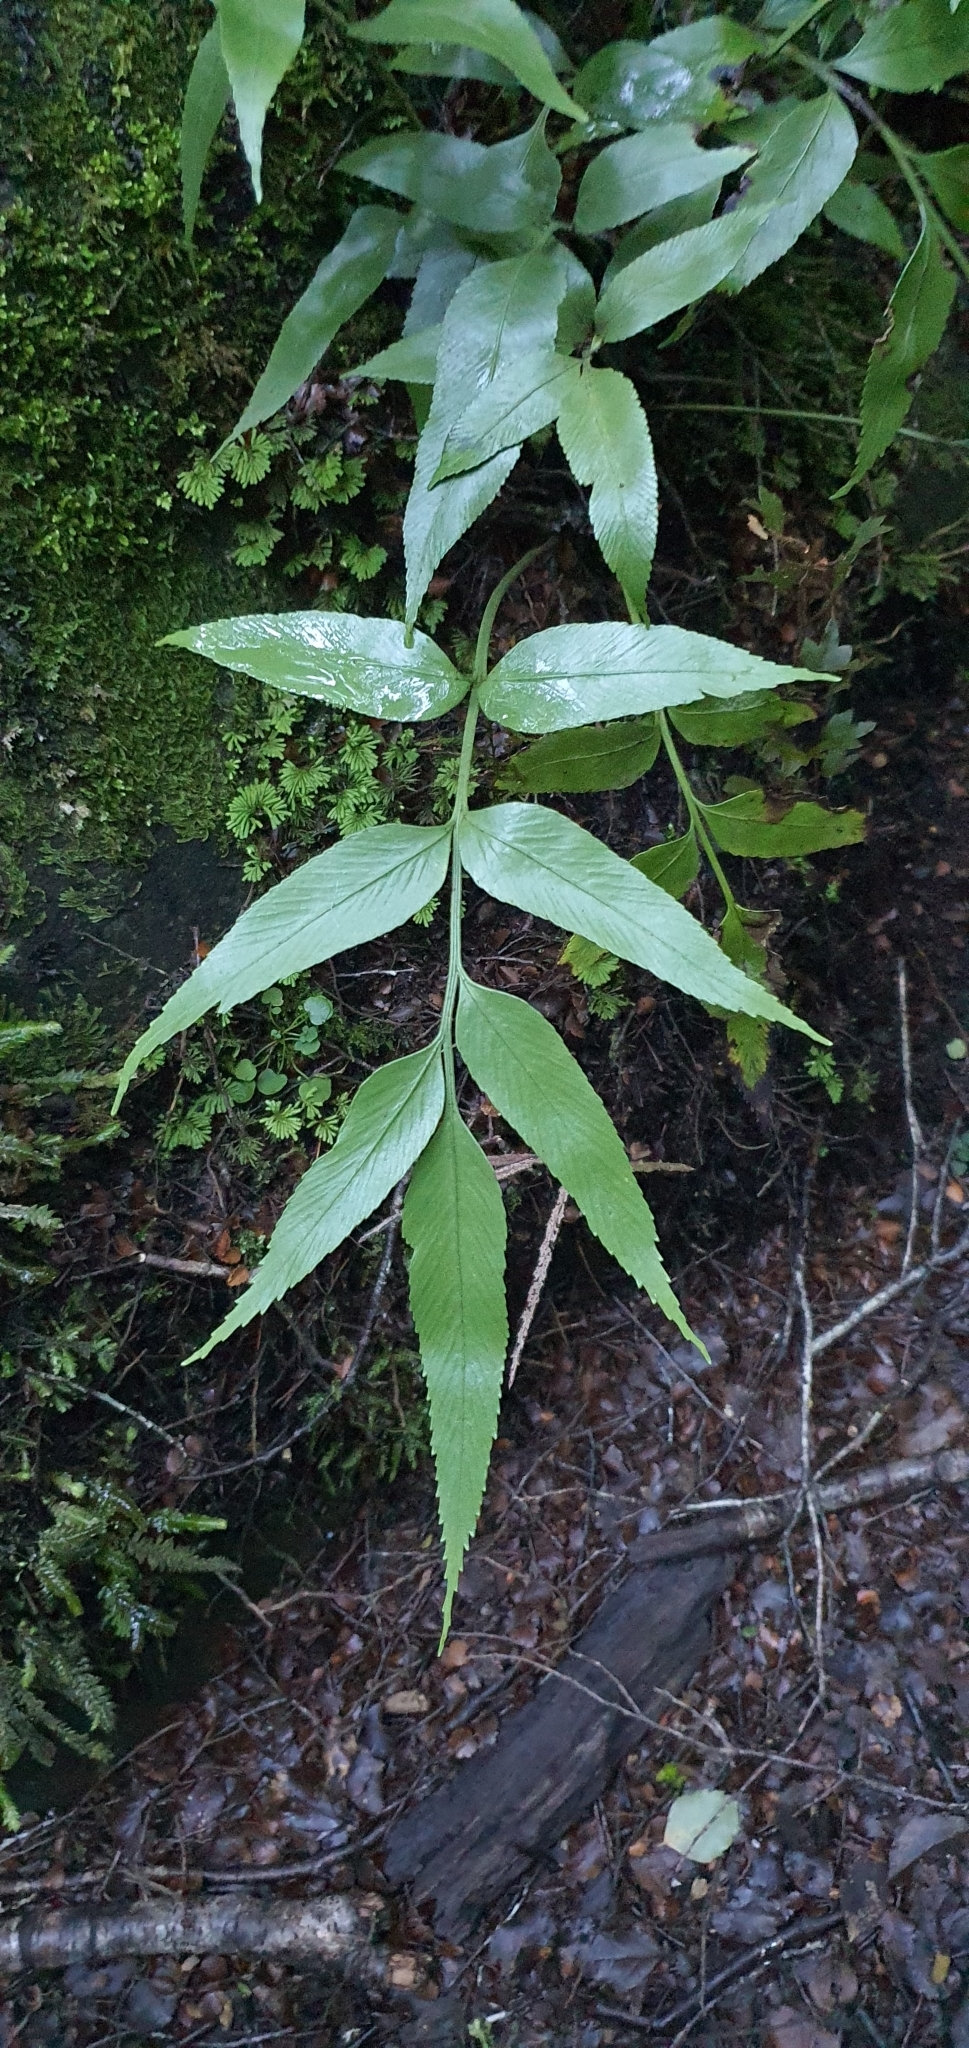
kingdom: Plantae
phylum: Tracheophyta
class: Polypodiopsida
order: Polypodiales
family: Aspleniaceae
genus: Asplenium
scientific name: Asplenium lepidotum
